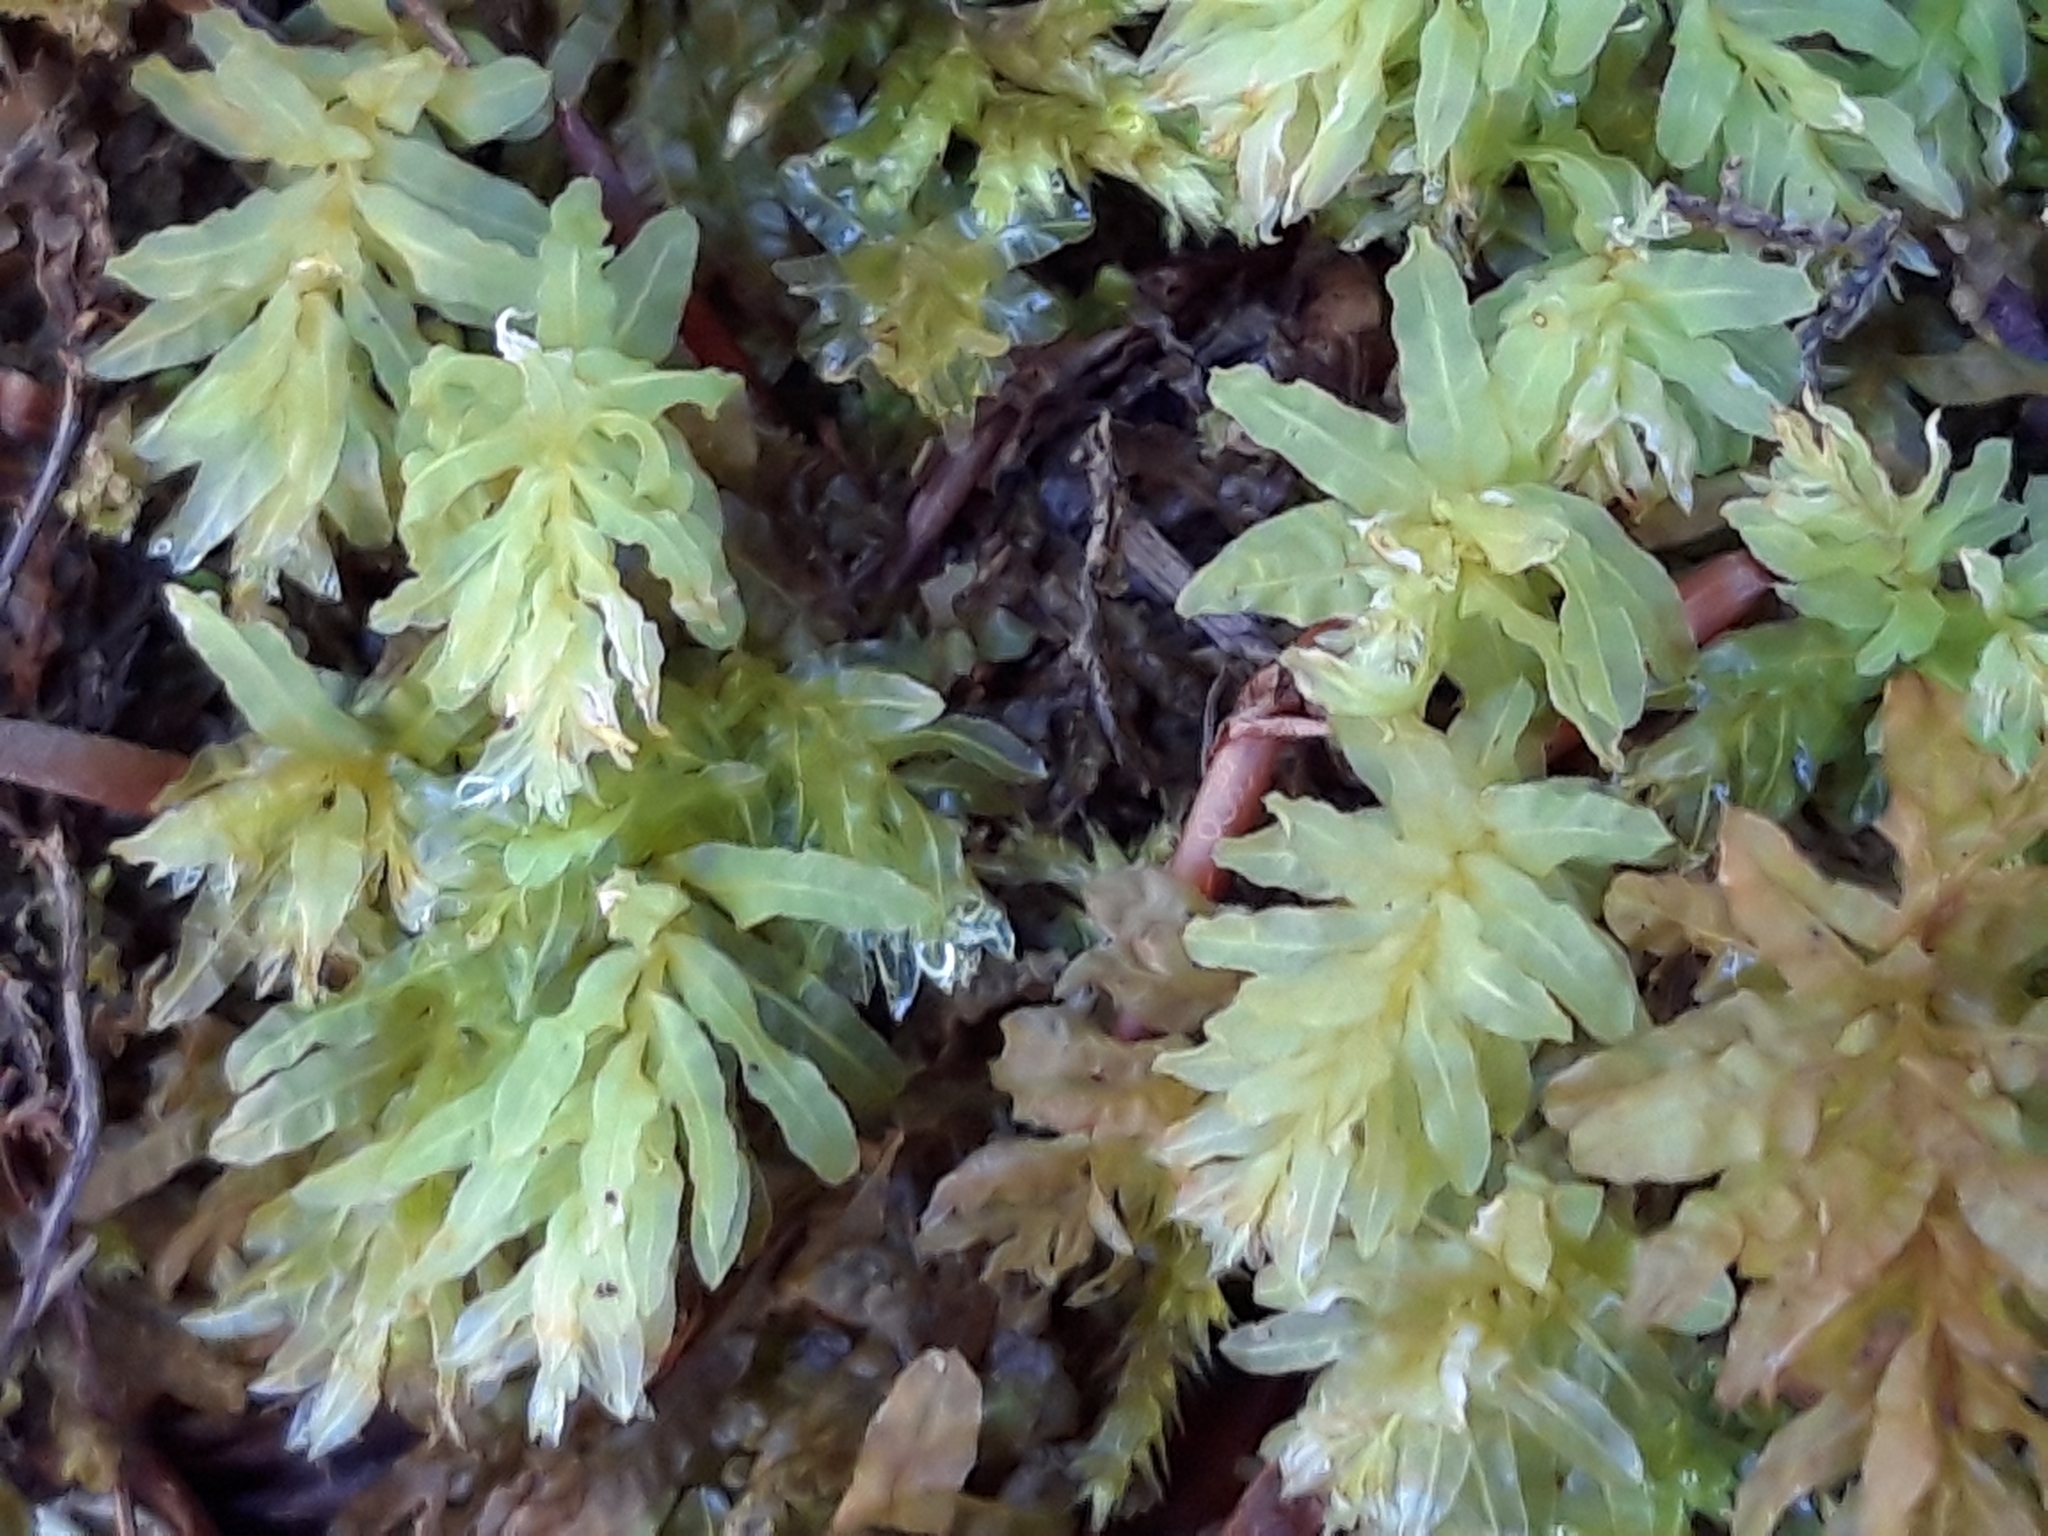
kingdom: Plantae
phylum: Bryophyta
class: Bryopsida
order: Bryales
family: Mniaceae
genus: Plagiomnium
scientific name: Plagiomnium undulatum
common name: Hart's-tongue thyme-moss
